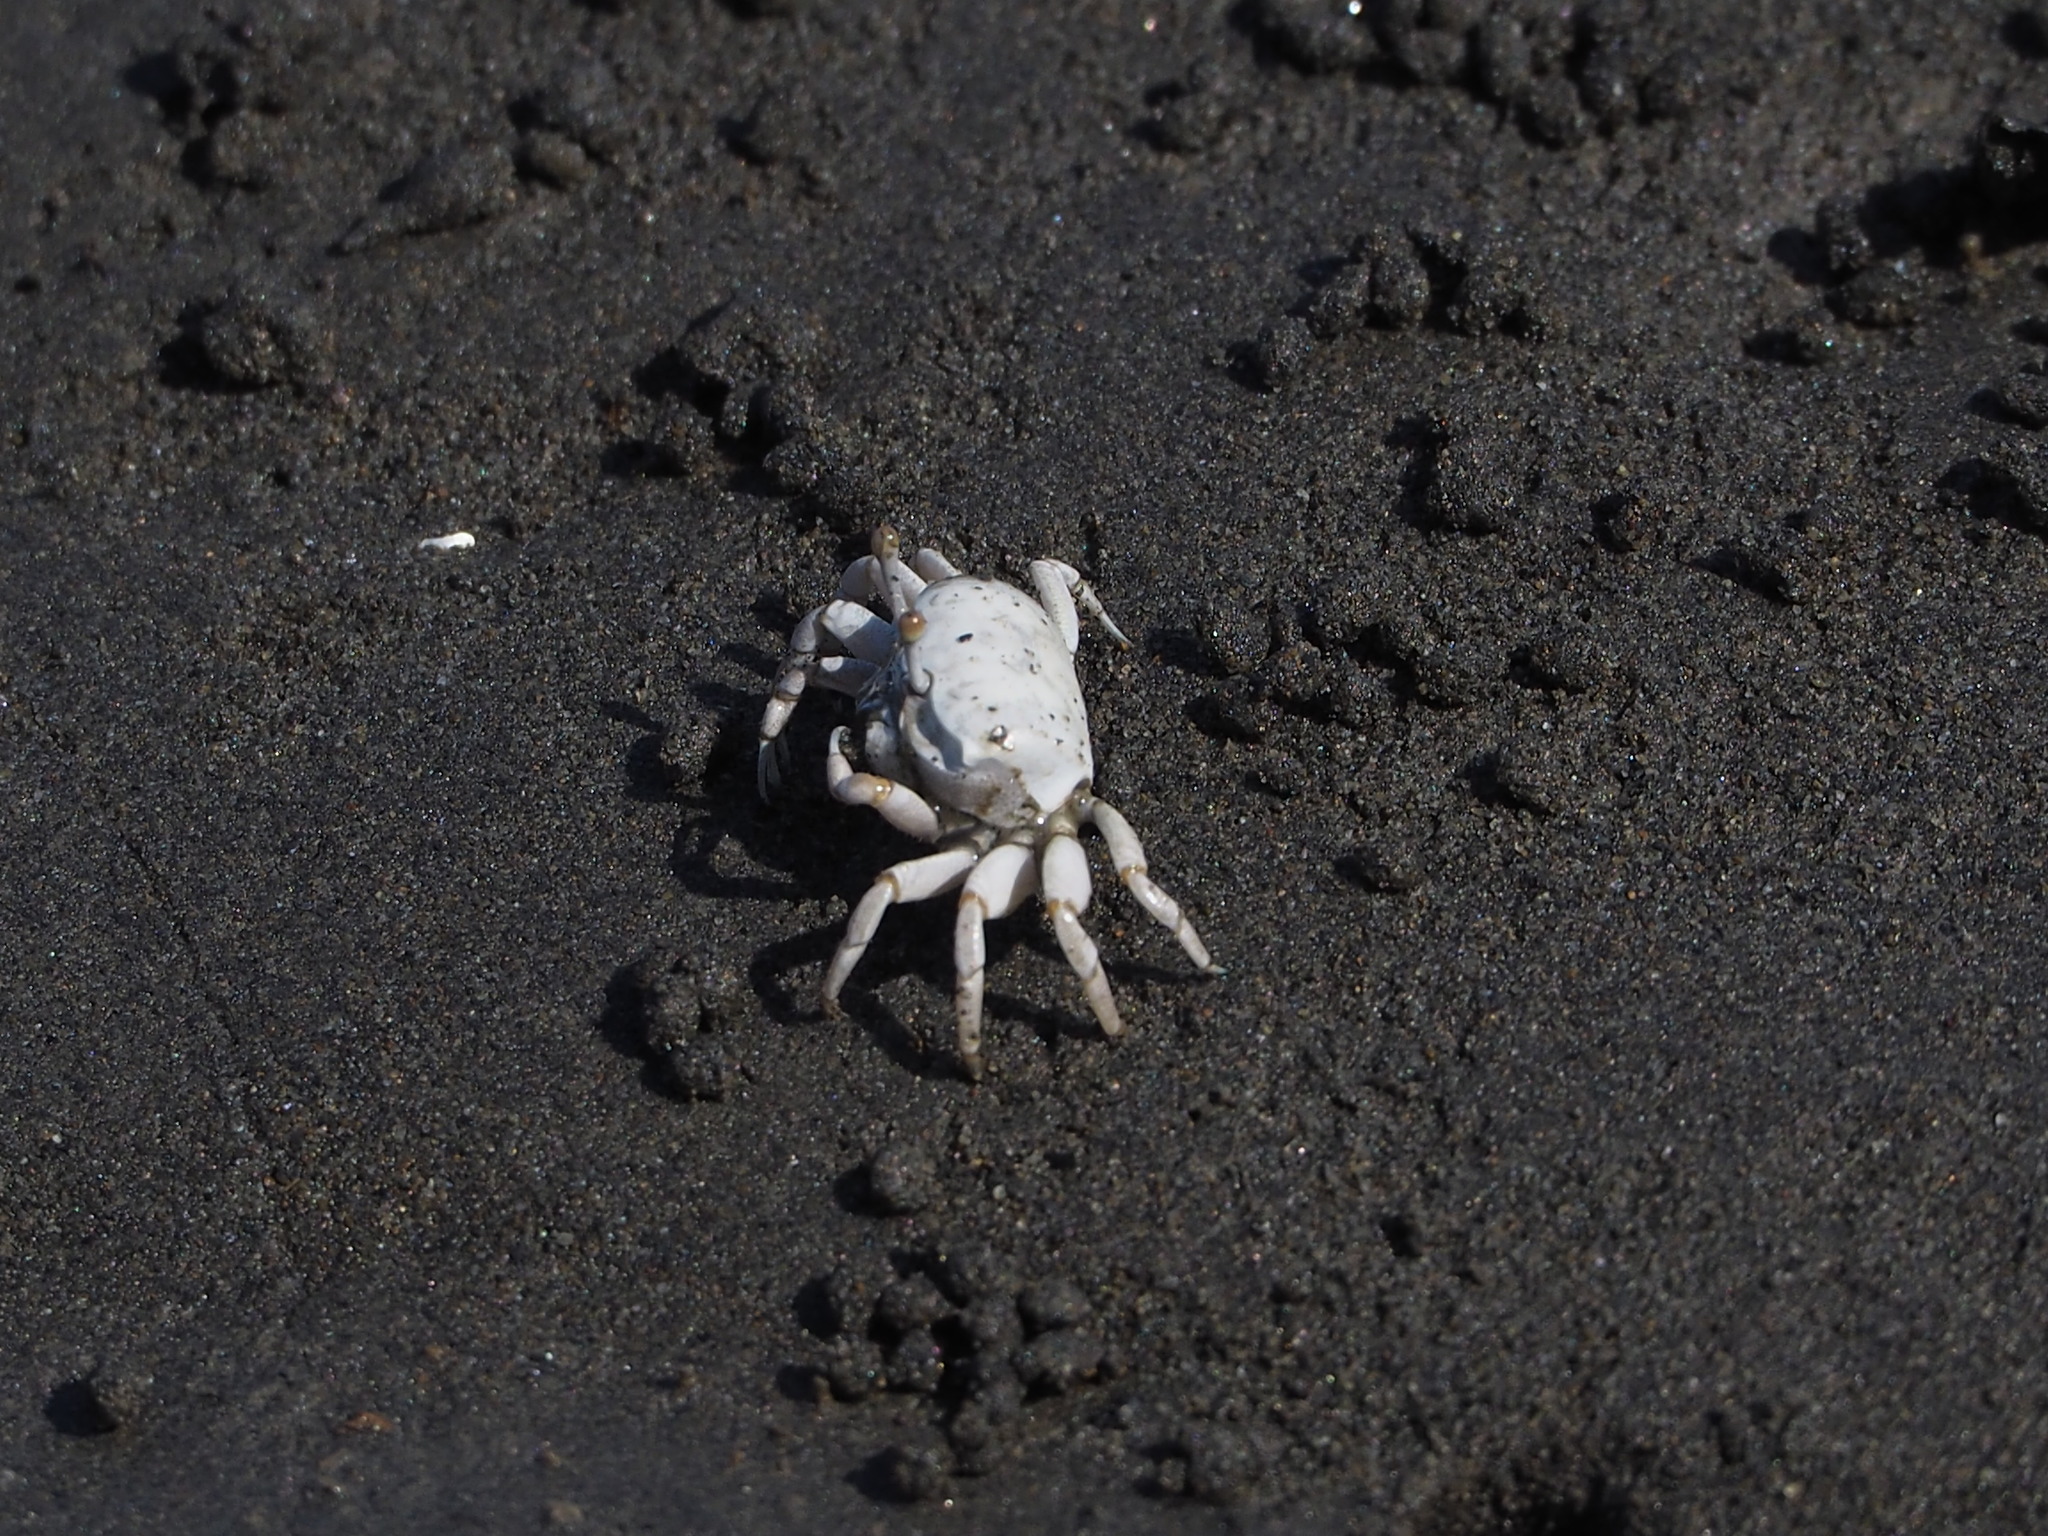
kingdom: Animalia
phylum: Arthropoda
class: Malacostraca
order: Decapoda
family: Ocypodidae
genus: Austruca
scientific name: Austruca lactea
